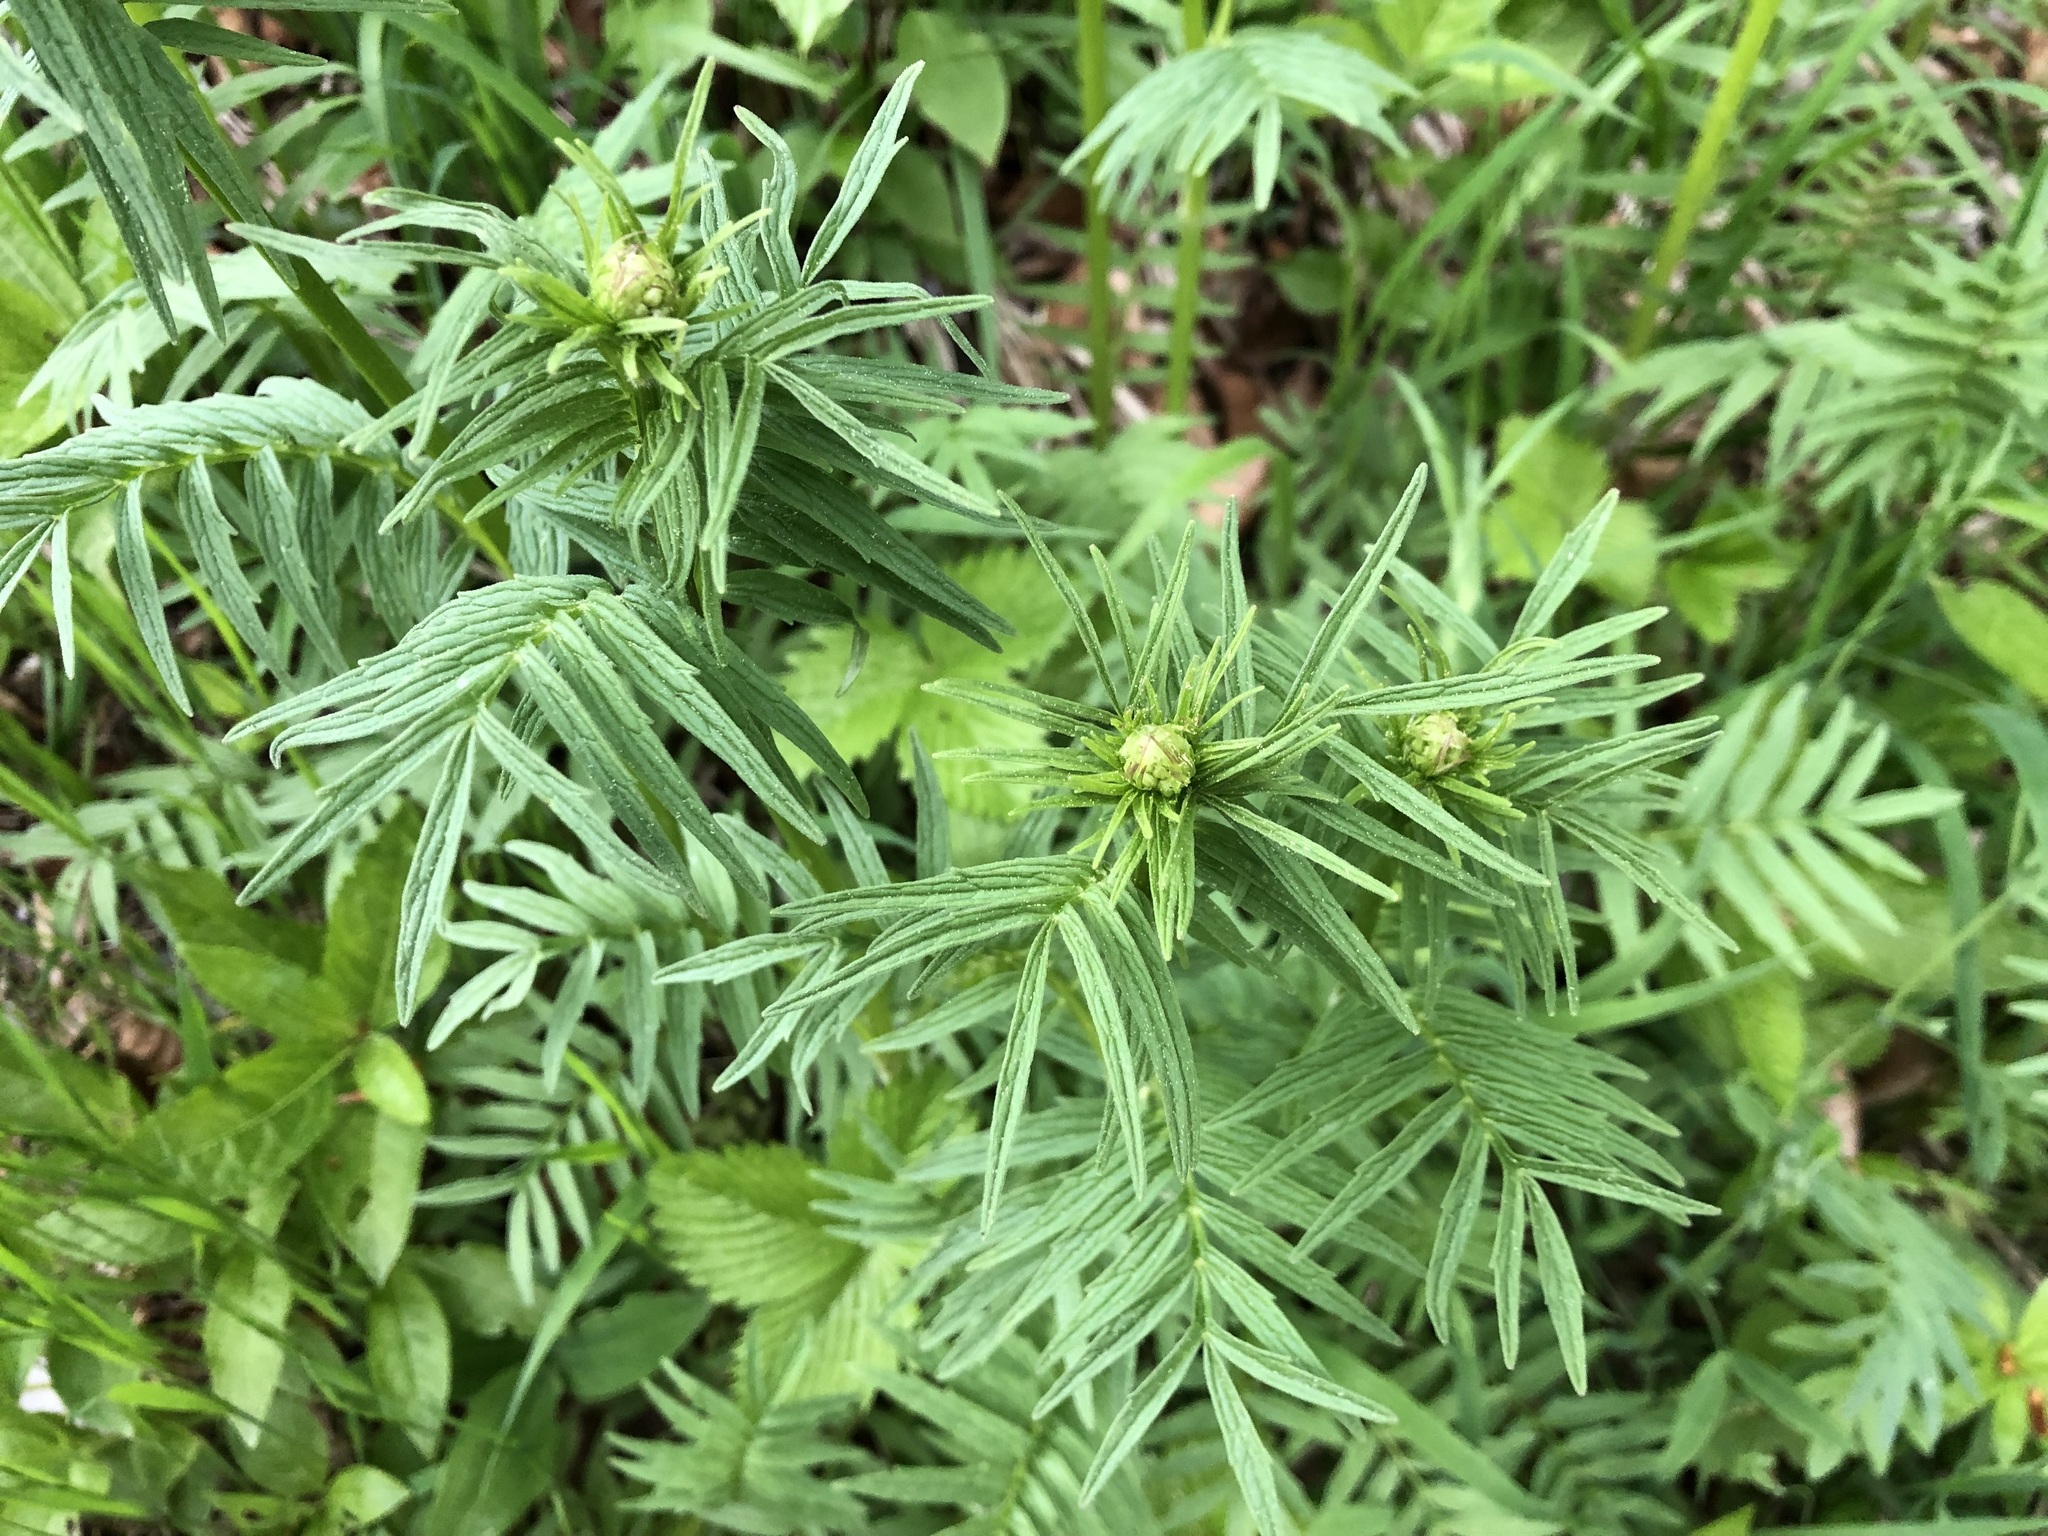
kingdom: Plantae
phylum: Tracheophyta
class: Magnoliopsida
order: Dipsacales
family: Caprifoliaceae
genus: Valeriana
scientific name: Valeriana officinalis
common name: Common valerian
